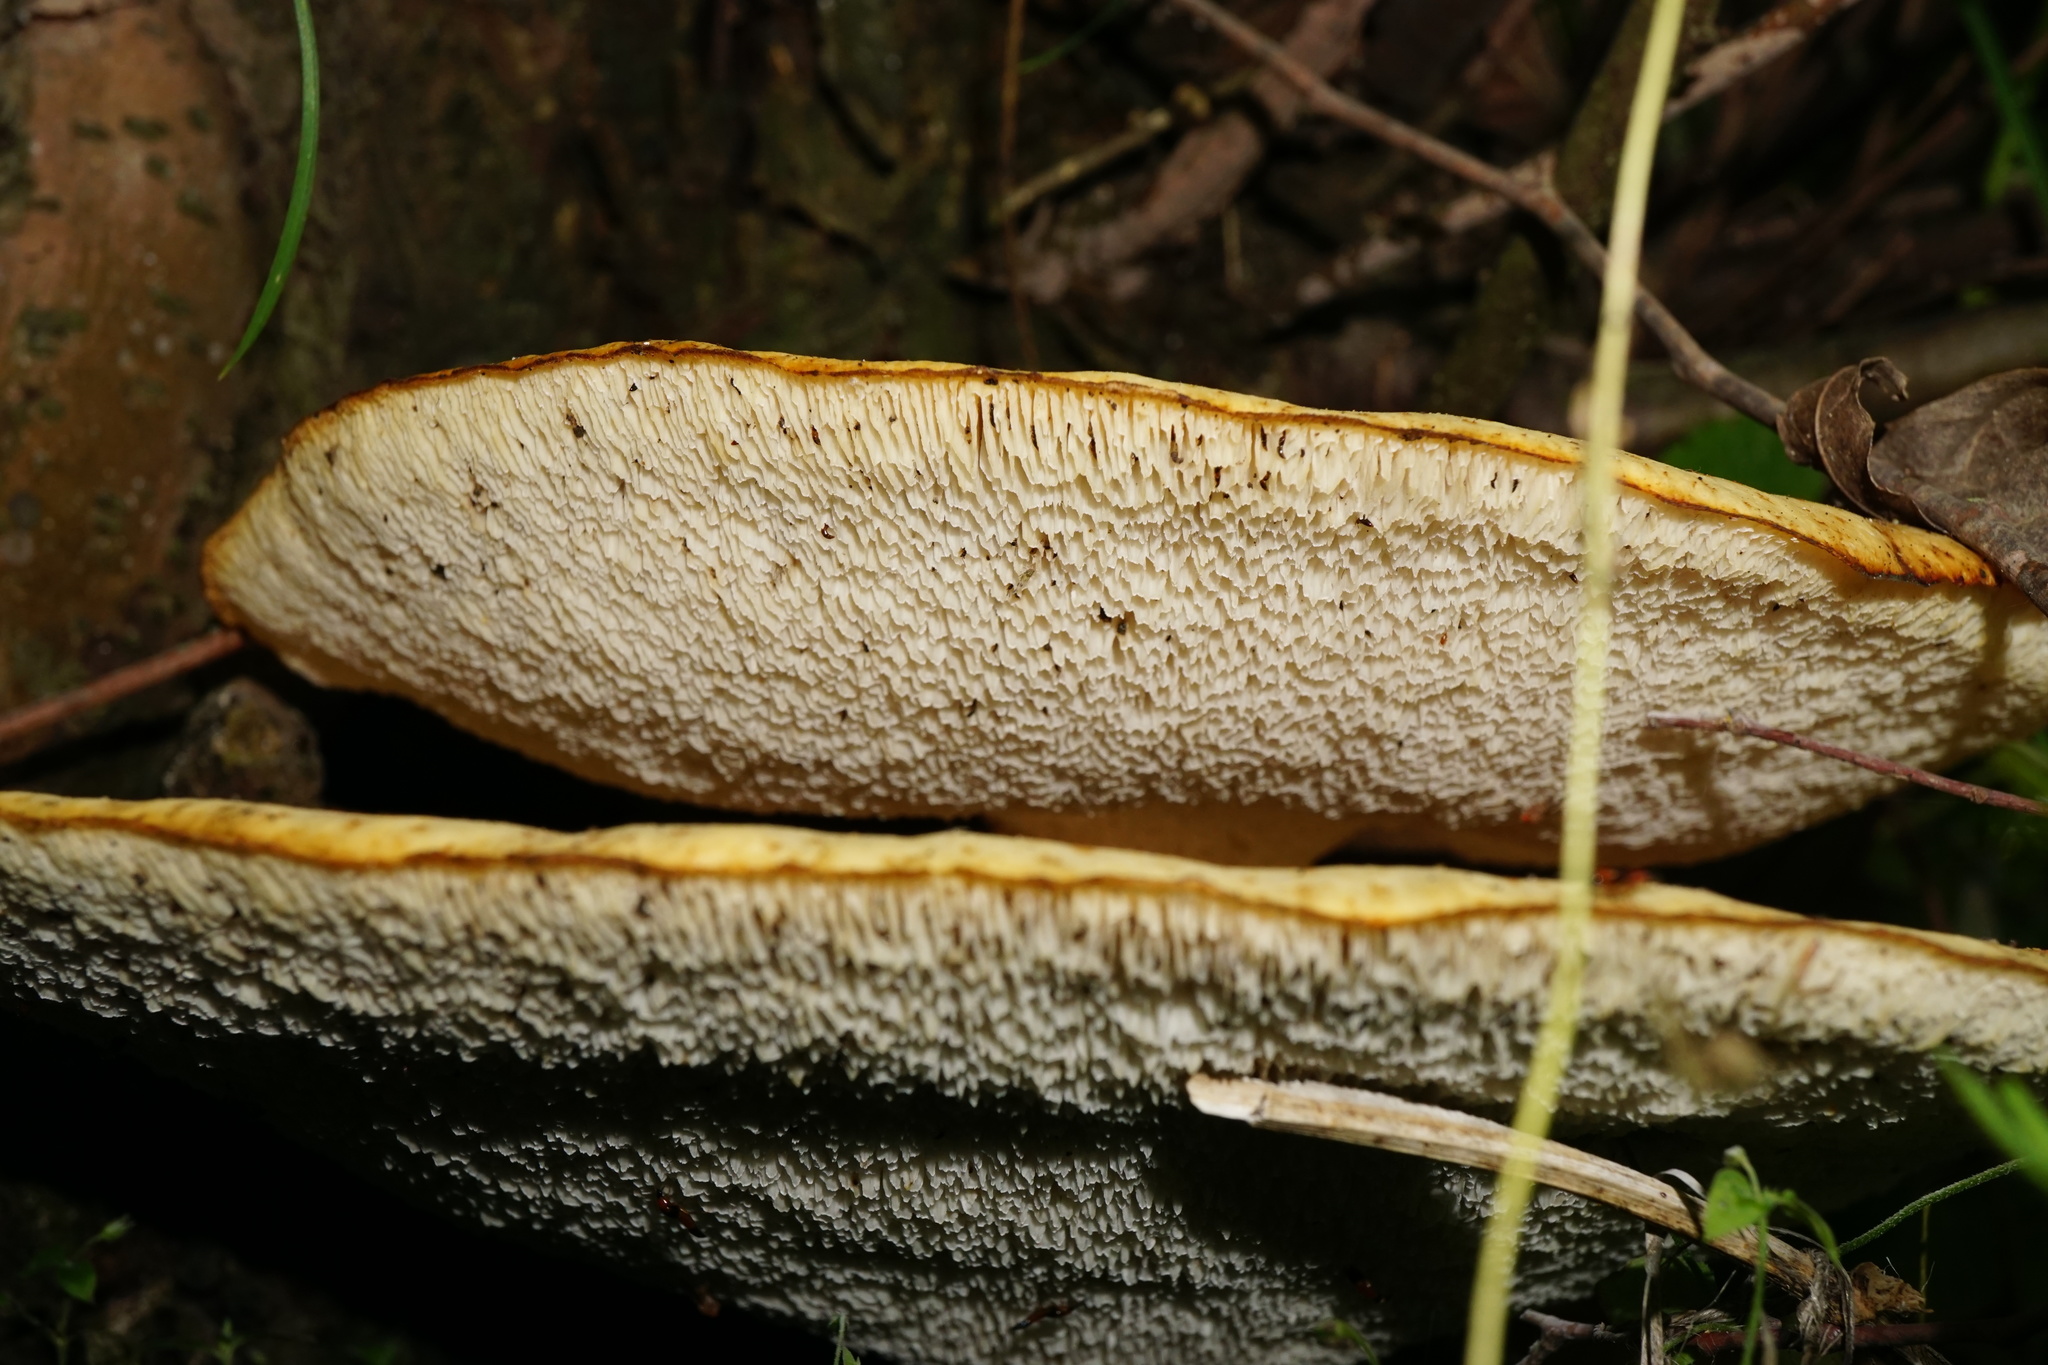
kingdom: Fungi
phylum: Basidiomycota
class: Agaricomycetes
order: Polyporales
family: Polyporaceae
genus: Cerioporus
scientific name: Cerioporus squamosus
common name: Dryad's saddle
